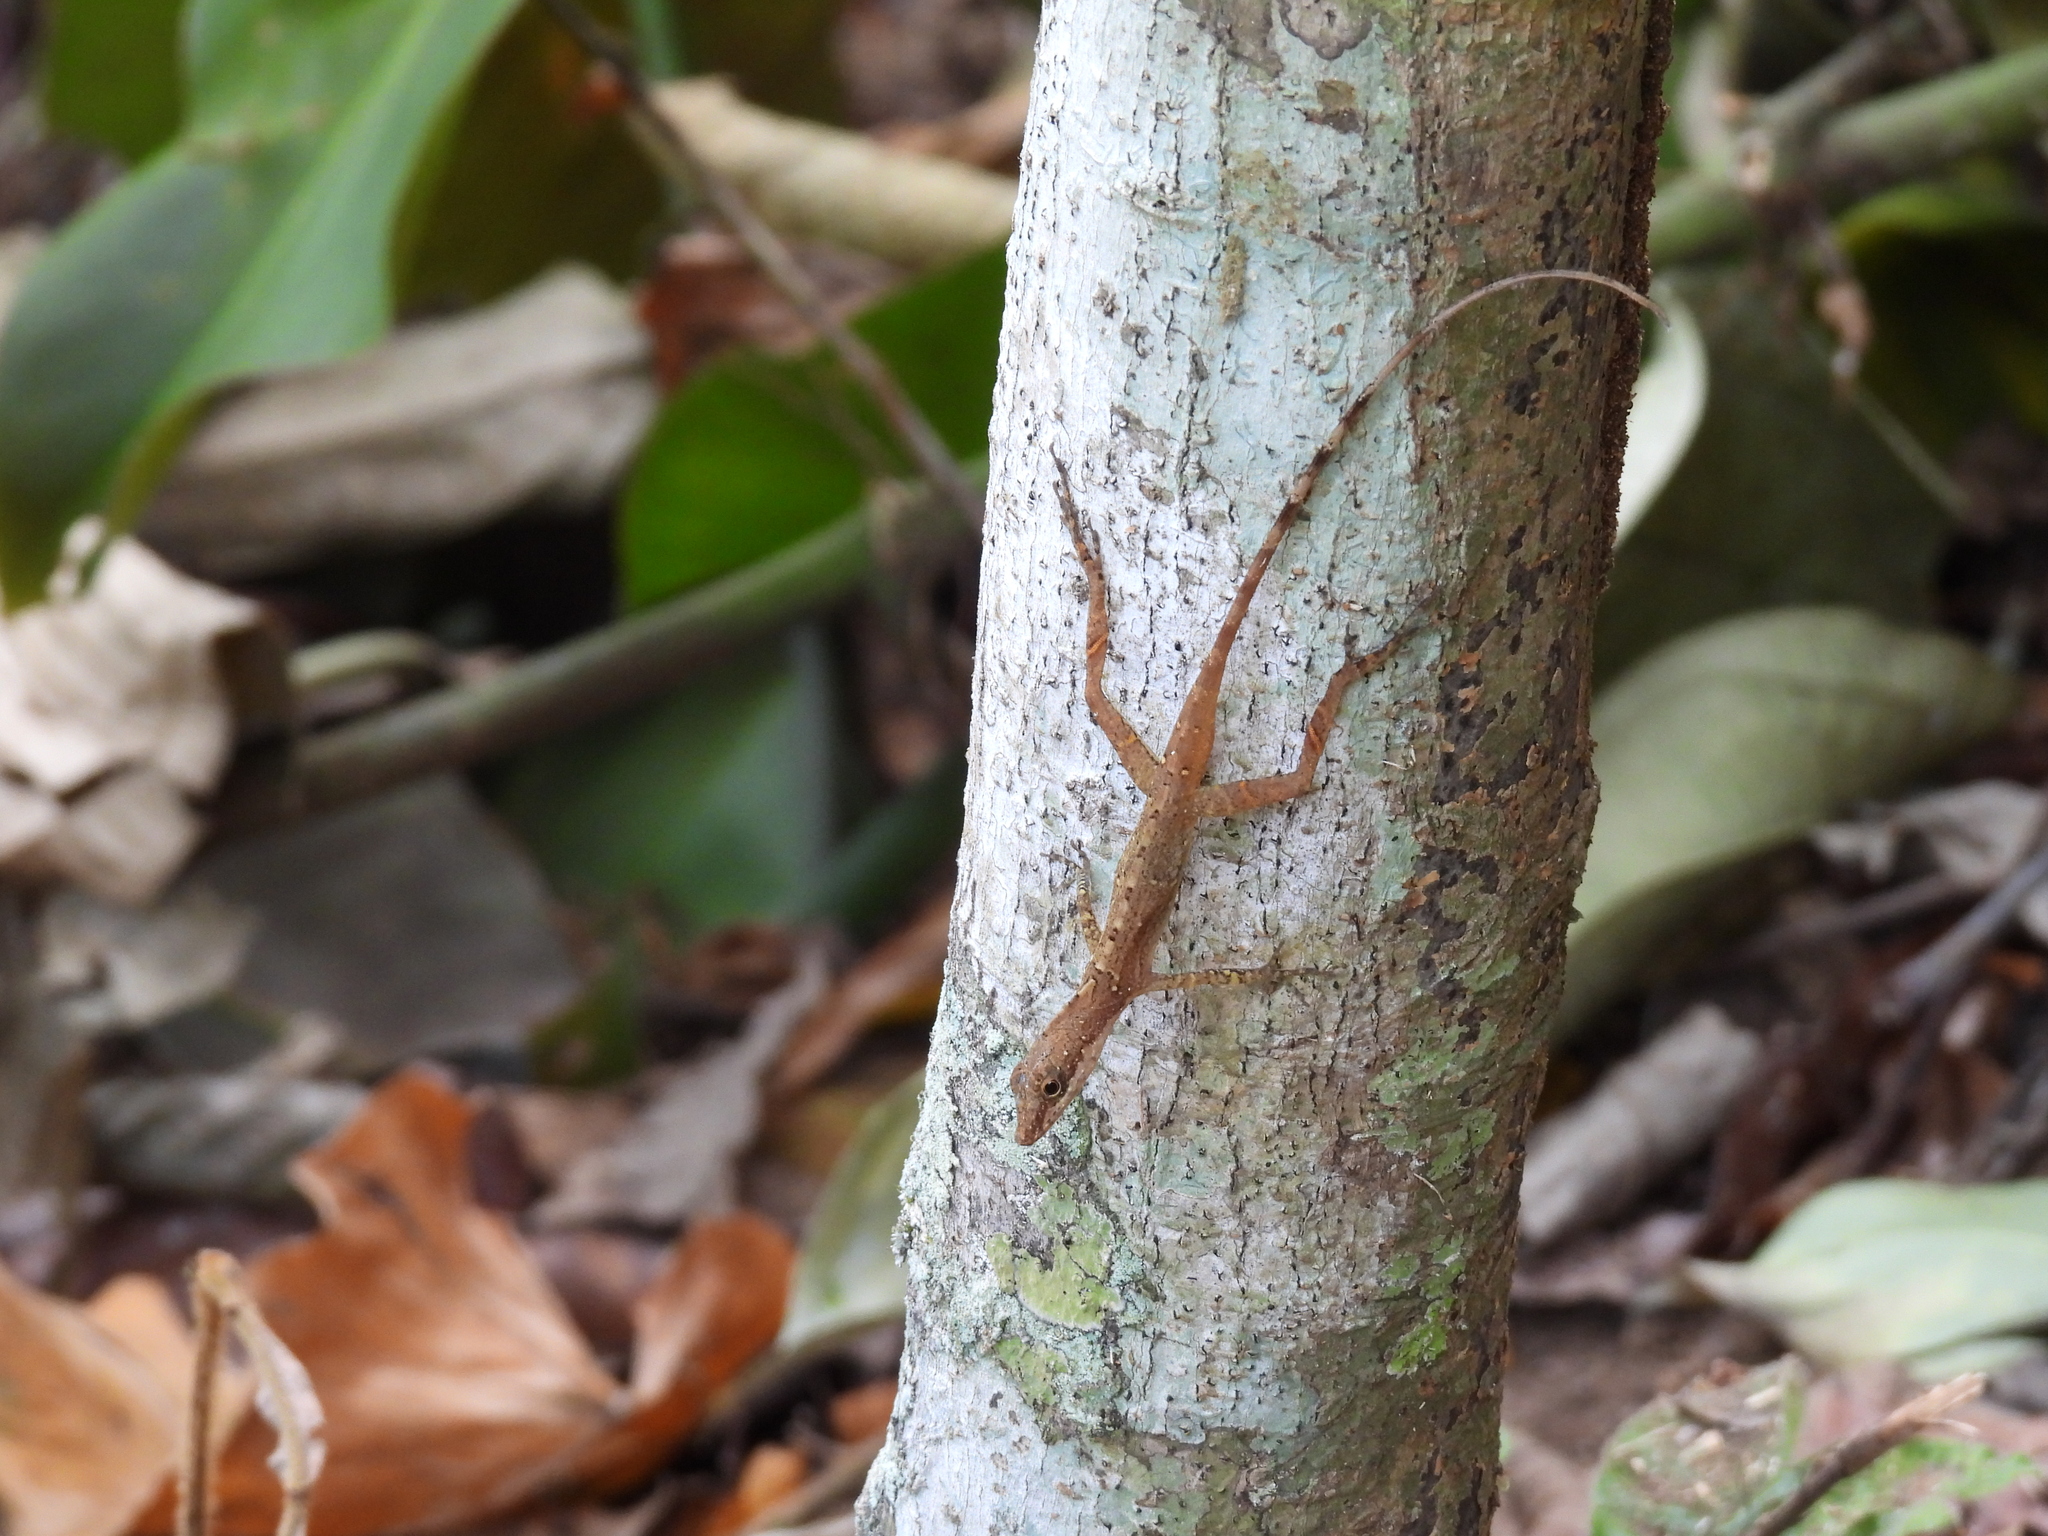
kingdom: Animalia
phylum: Chordata
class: Squamata
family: Dactyloidae
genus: Anolis
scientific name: Anolis limifrons
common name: Border anole
